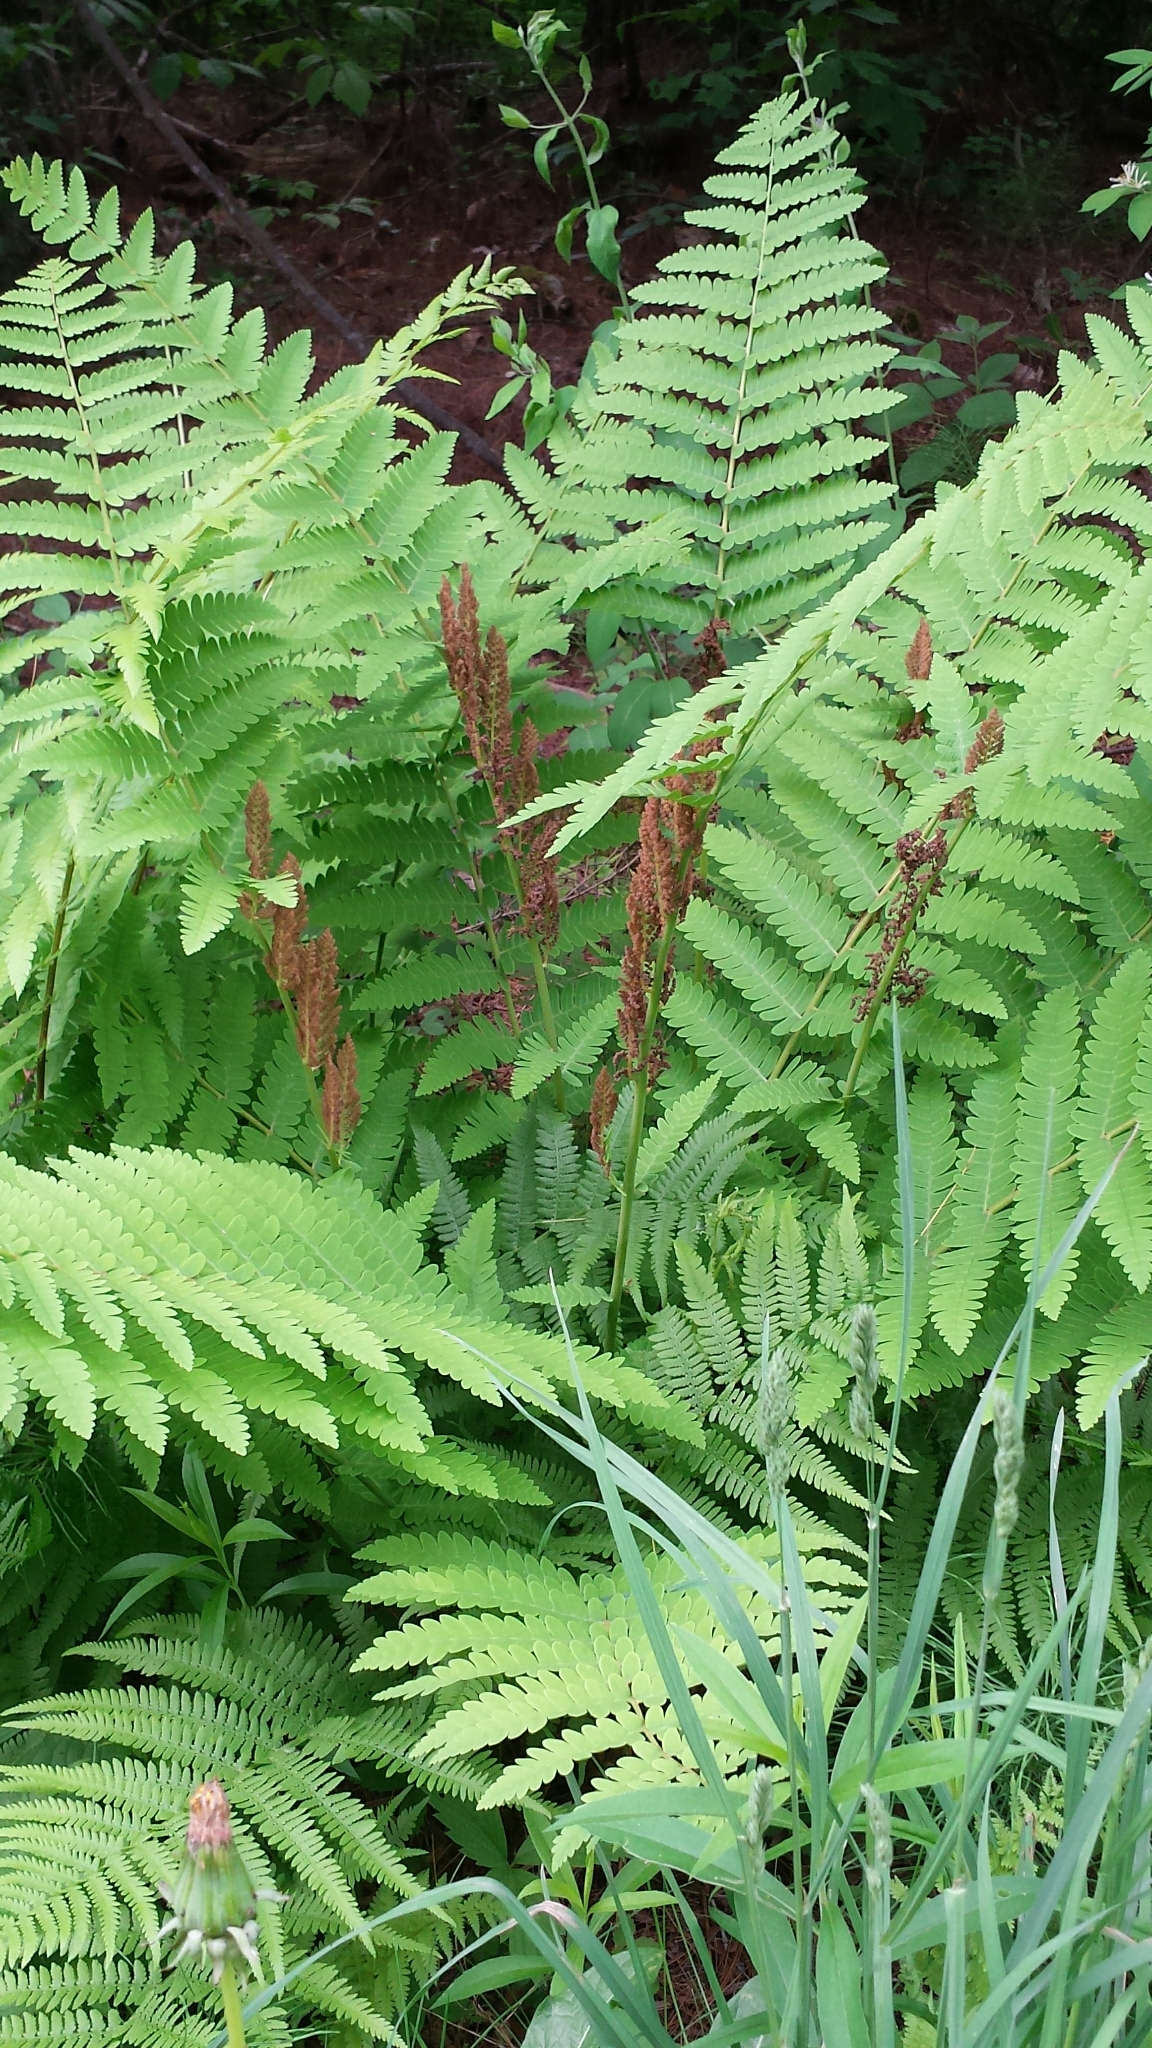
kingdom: Plantae
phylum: Tracheophyta
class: Polypodiopsida
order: Osmundales
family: Osmundaceae
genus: Claytosmunda
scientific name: Claytosmunda claytoniana
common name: Clayton's fern
